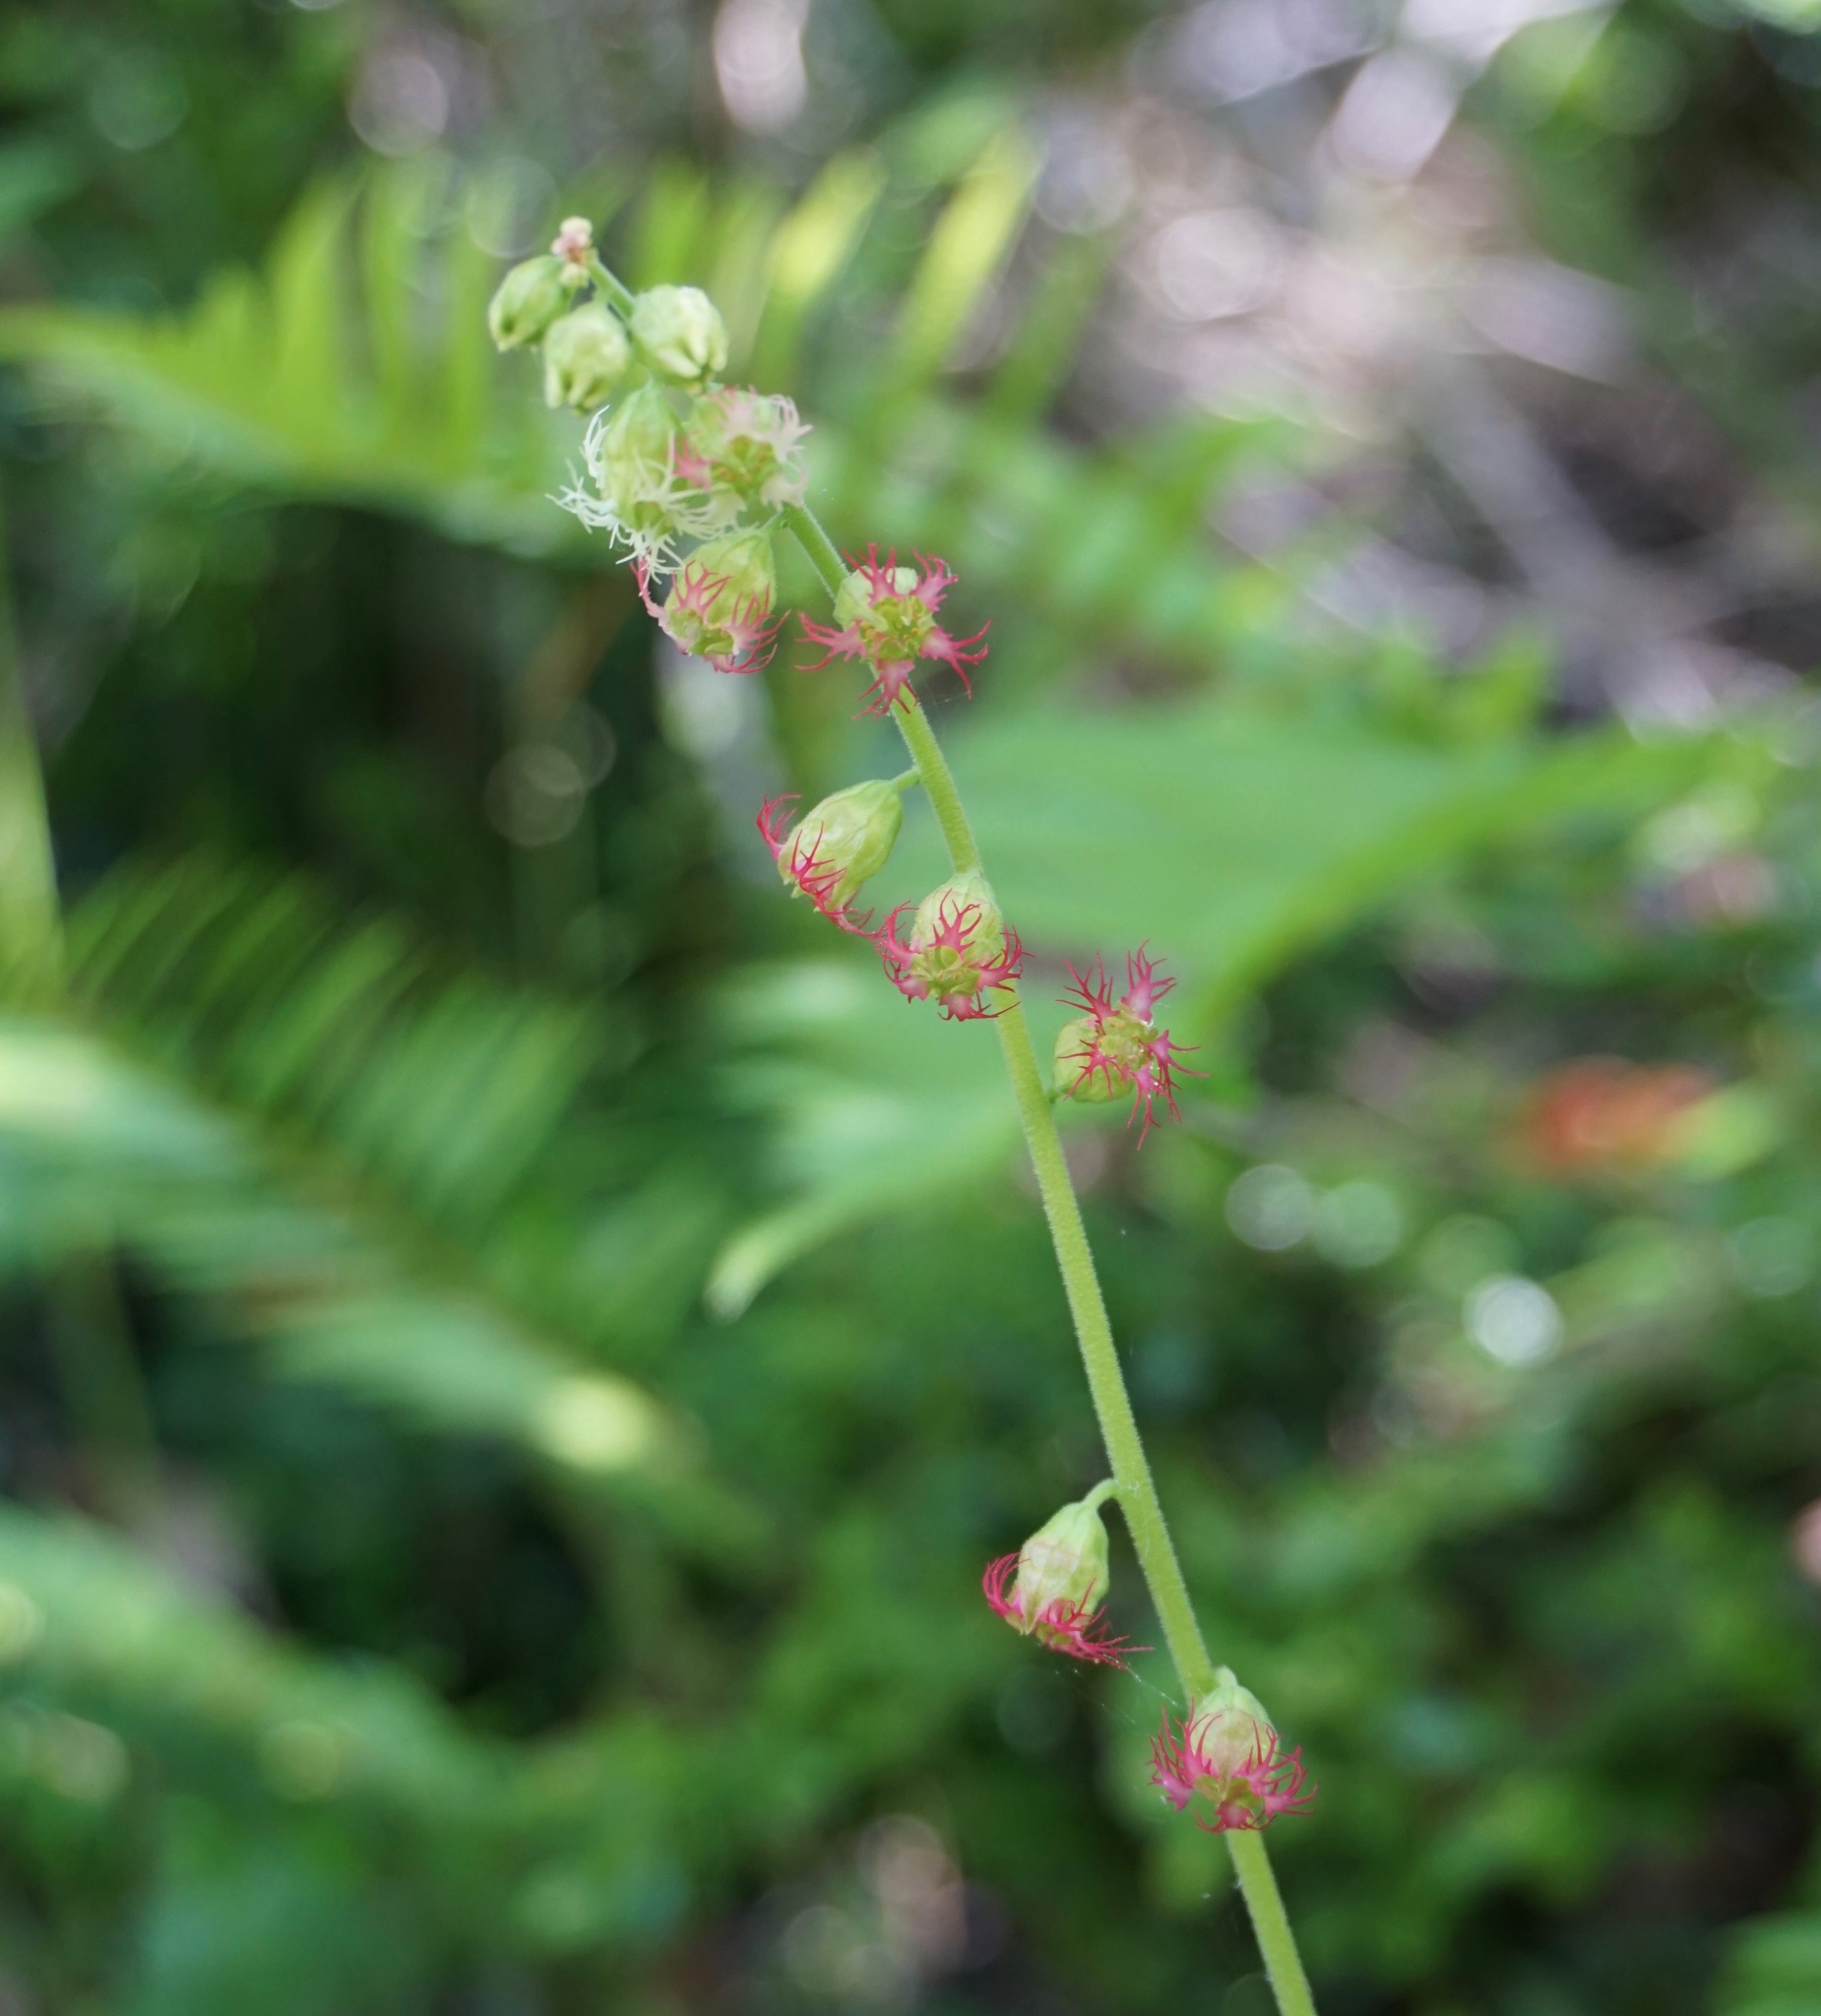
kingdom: Plantae
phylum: Tracheophyta
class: Magnoliopsida
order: Saxifragales
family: Saxifragaceae
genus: Tellima
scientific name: Tellima grandiflora
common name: Fringecups
